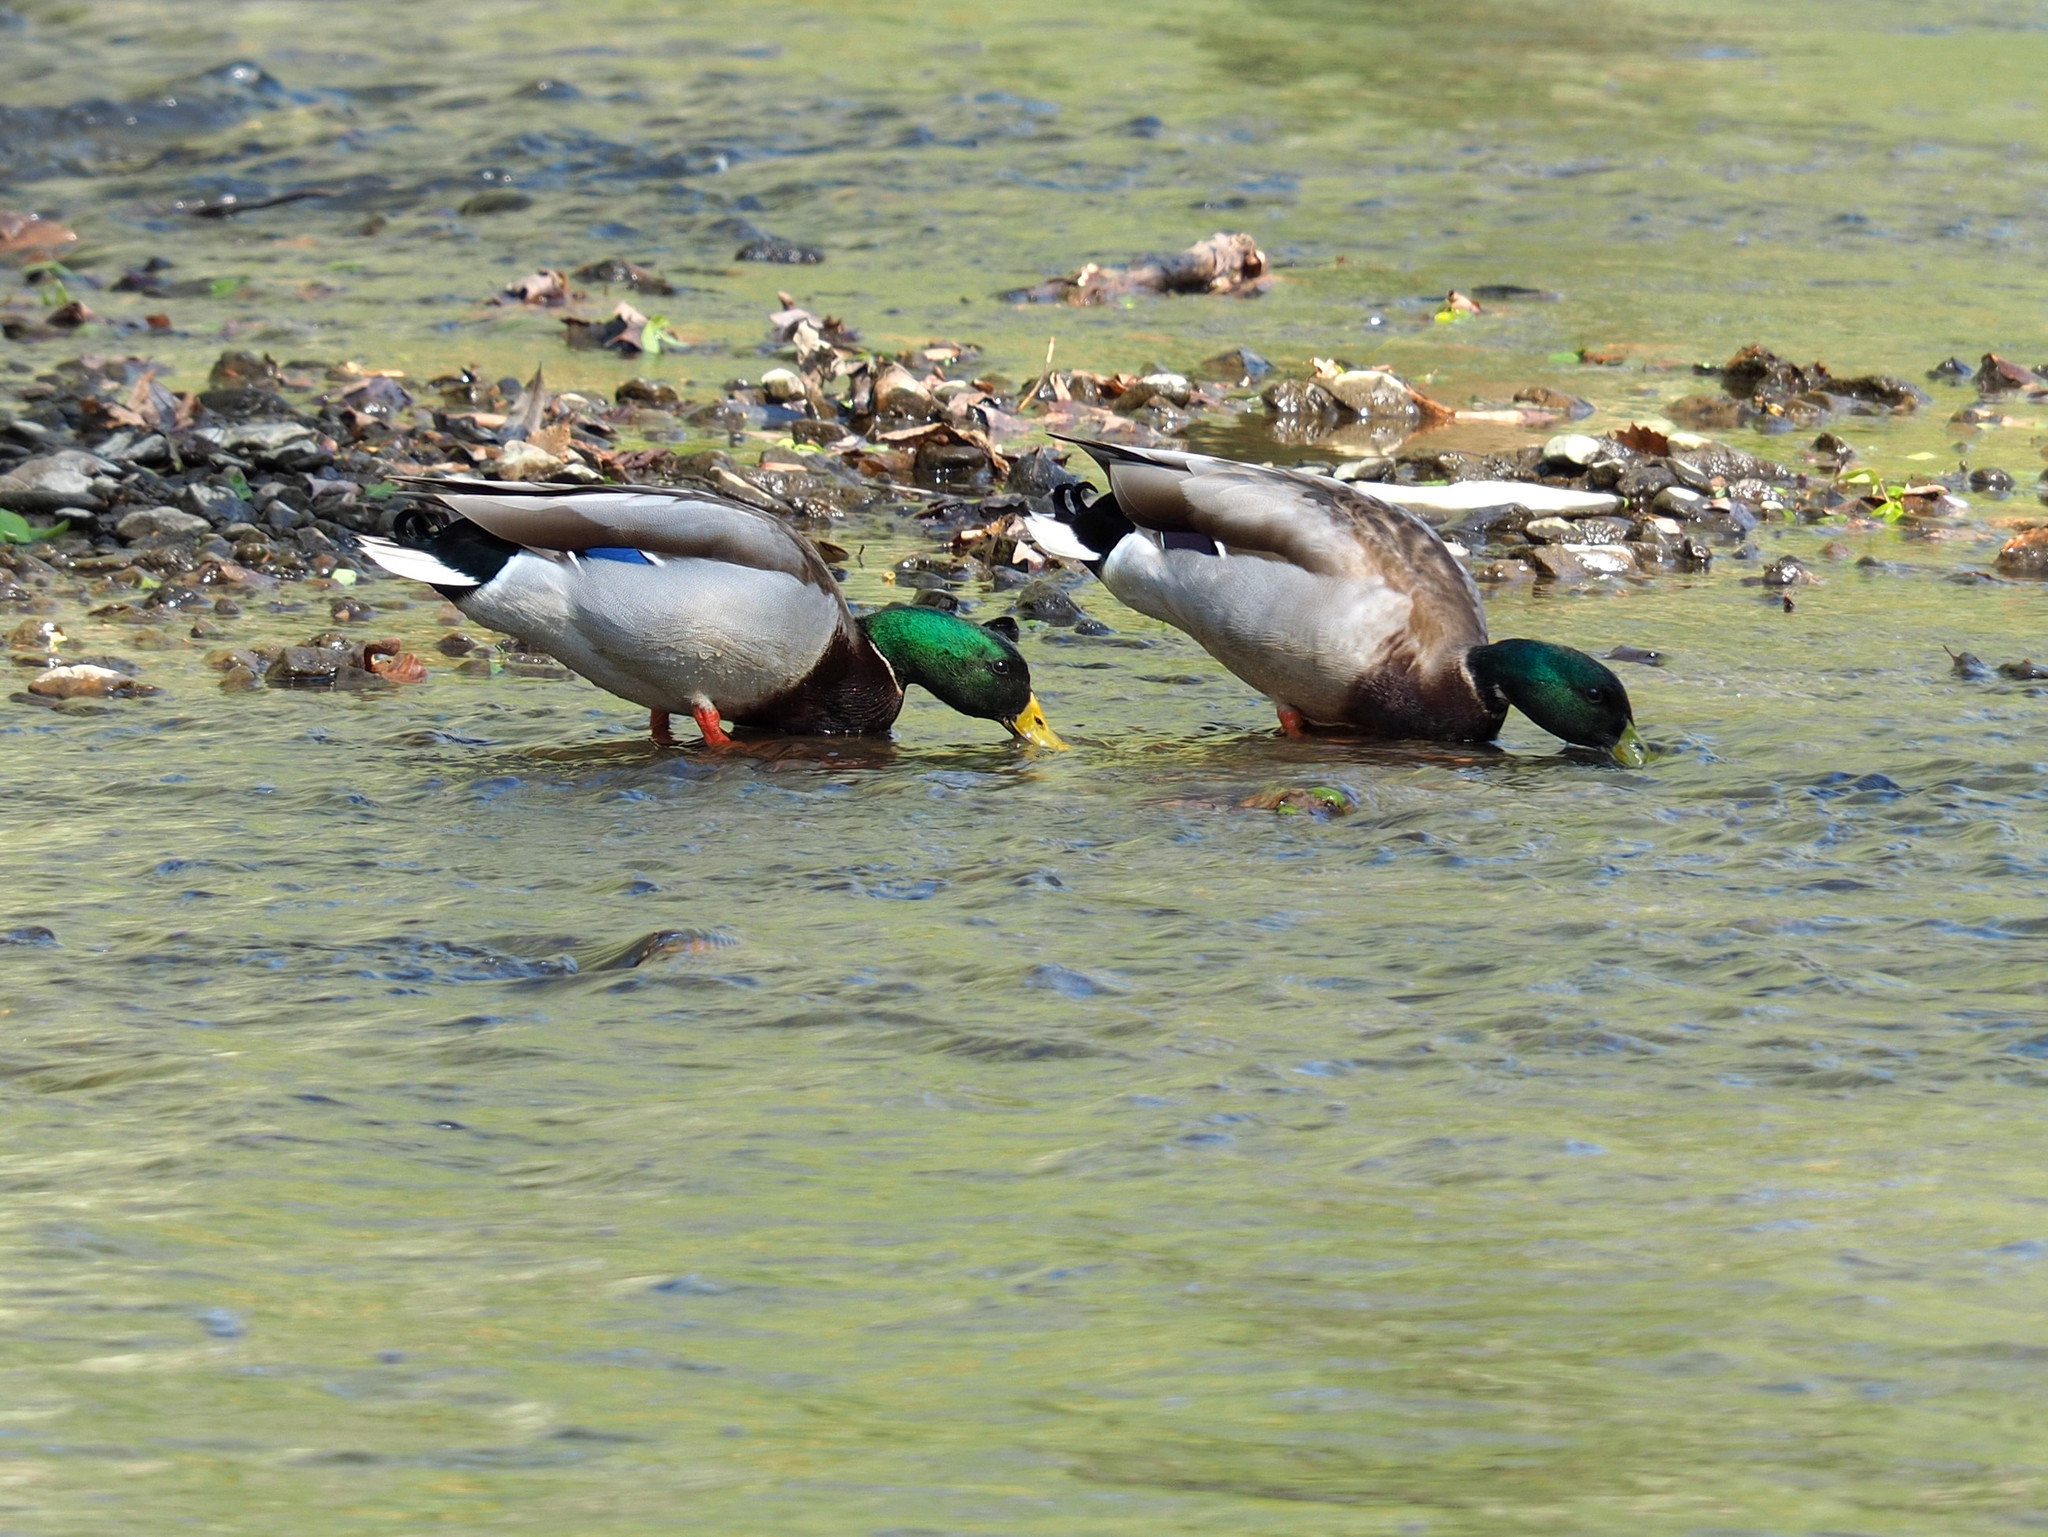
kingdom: Animalia
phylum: Chordata
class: Aves
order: Anseriformes
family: Anatidae
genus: Anas
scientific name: Anas platyrhynchos
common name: Mallard
